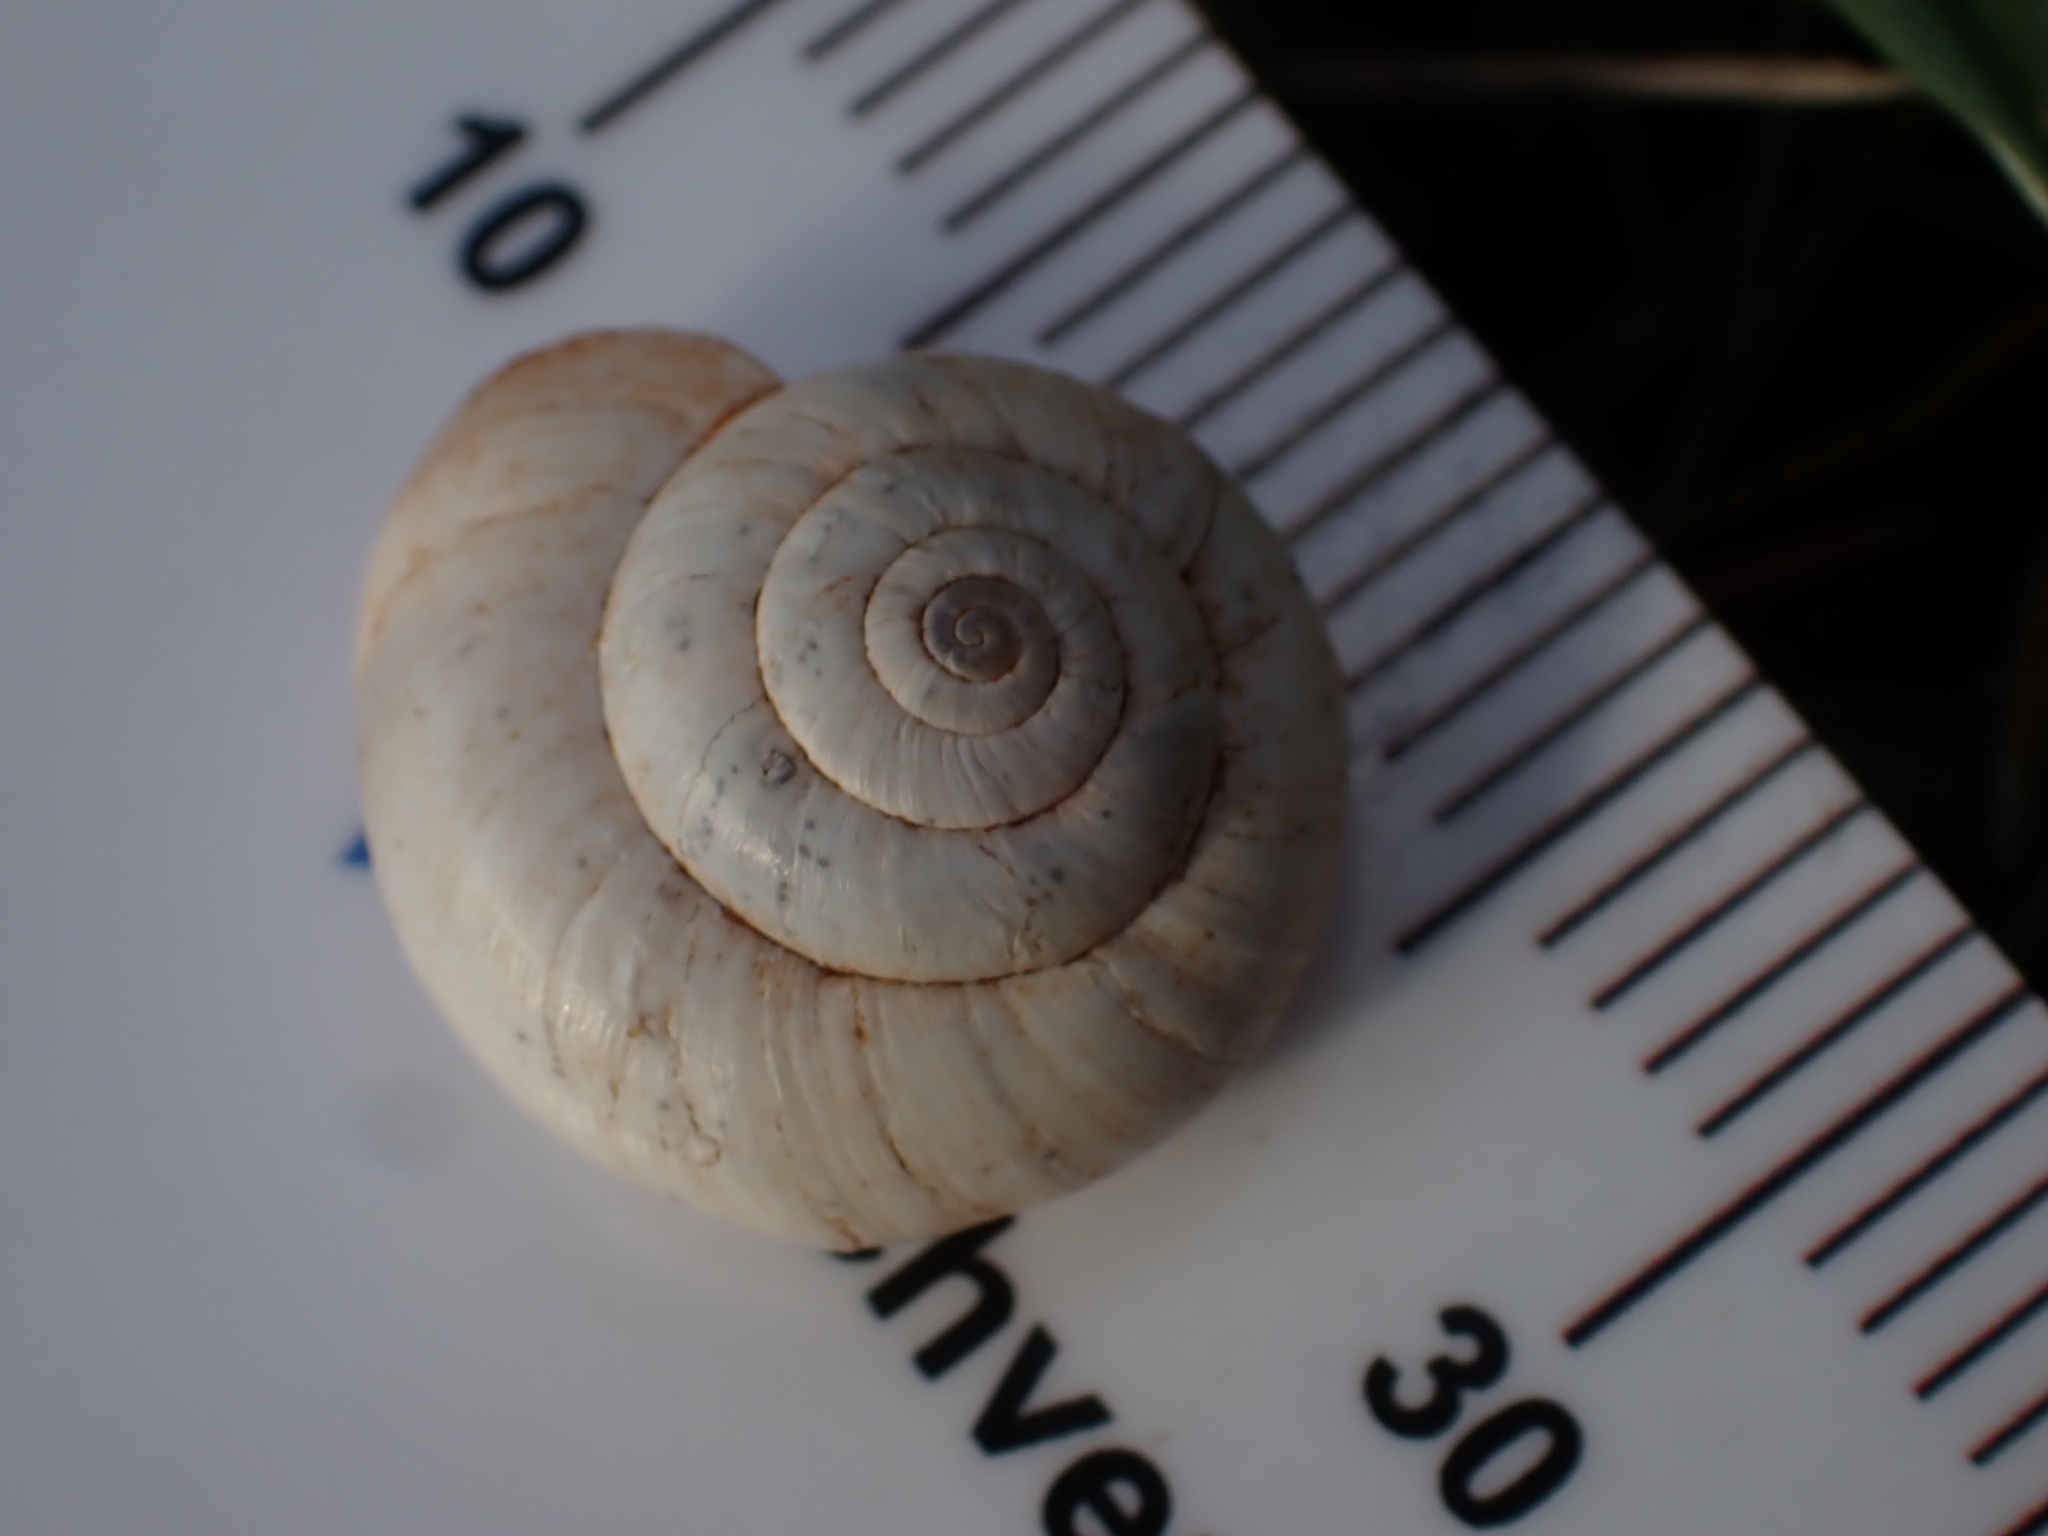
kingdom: Animalia
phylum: Mollusca
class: Gastropoda
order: Stylommatophora
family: Geomitridae
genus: Xeropicta
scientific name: Xeropicta derbentina
